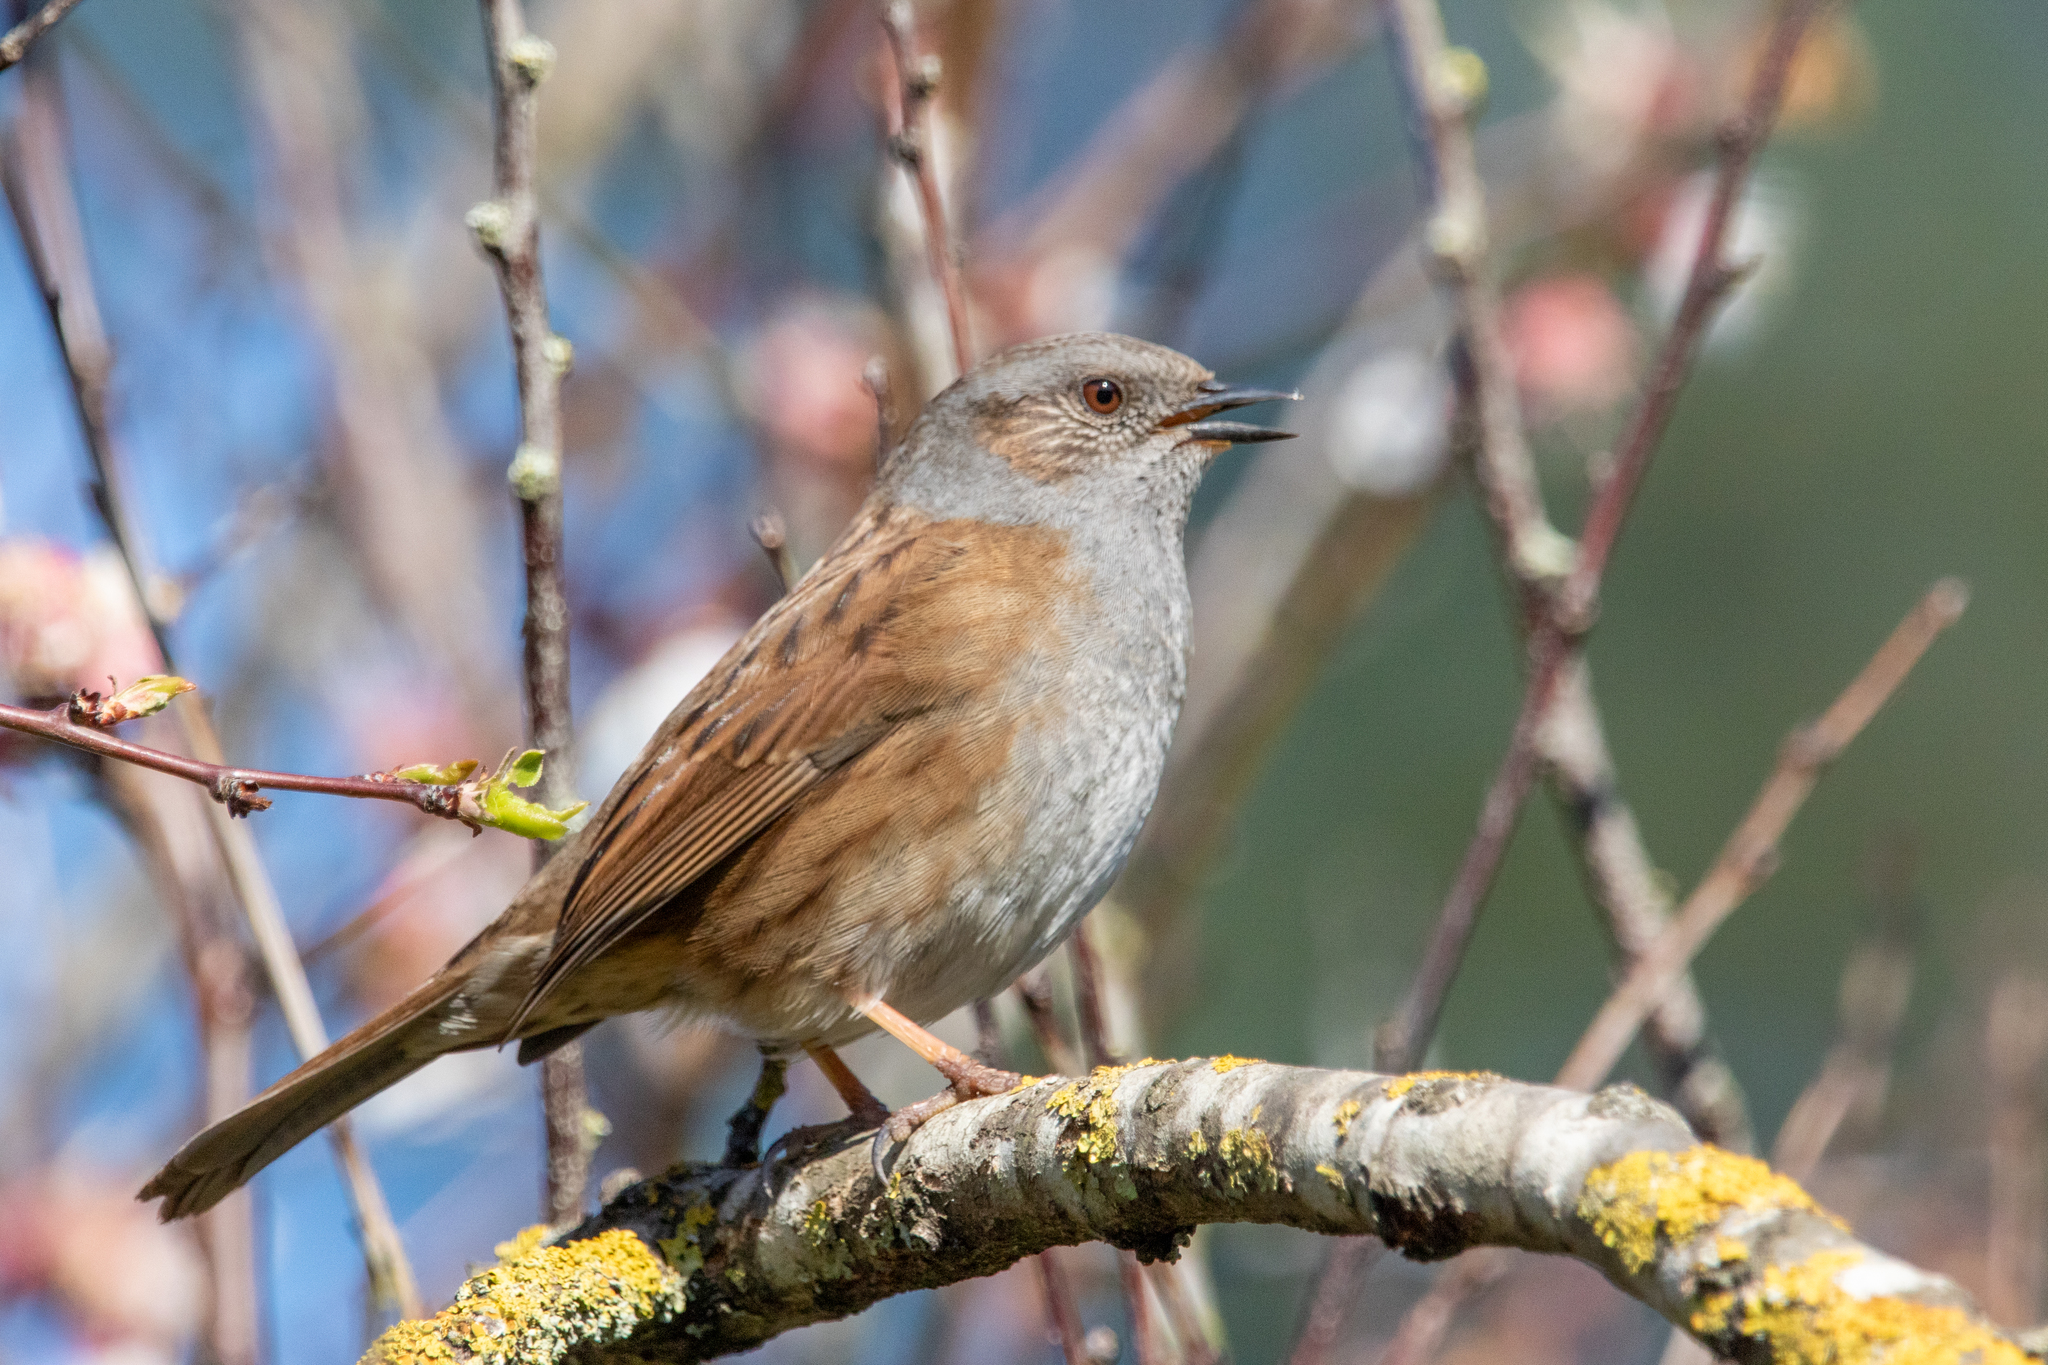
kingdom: Animalia
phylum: Chordata
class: Aves
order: Passeriformes
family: Prunellidae
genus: Prunella
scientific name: Prunella modularis
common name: Dunnock
